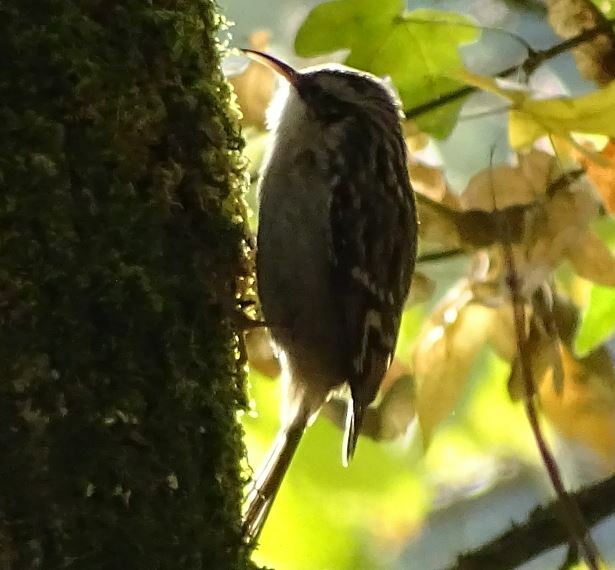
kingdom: Animalia
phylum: Chordata
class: Aves
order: Passeriformes
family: Certhiidae
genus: Certhia
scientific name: Certhia brachydactyla
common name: Short-toed treecreeper
